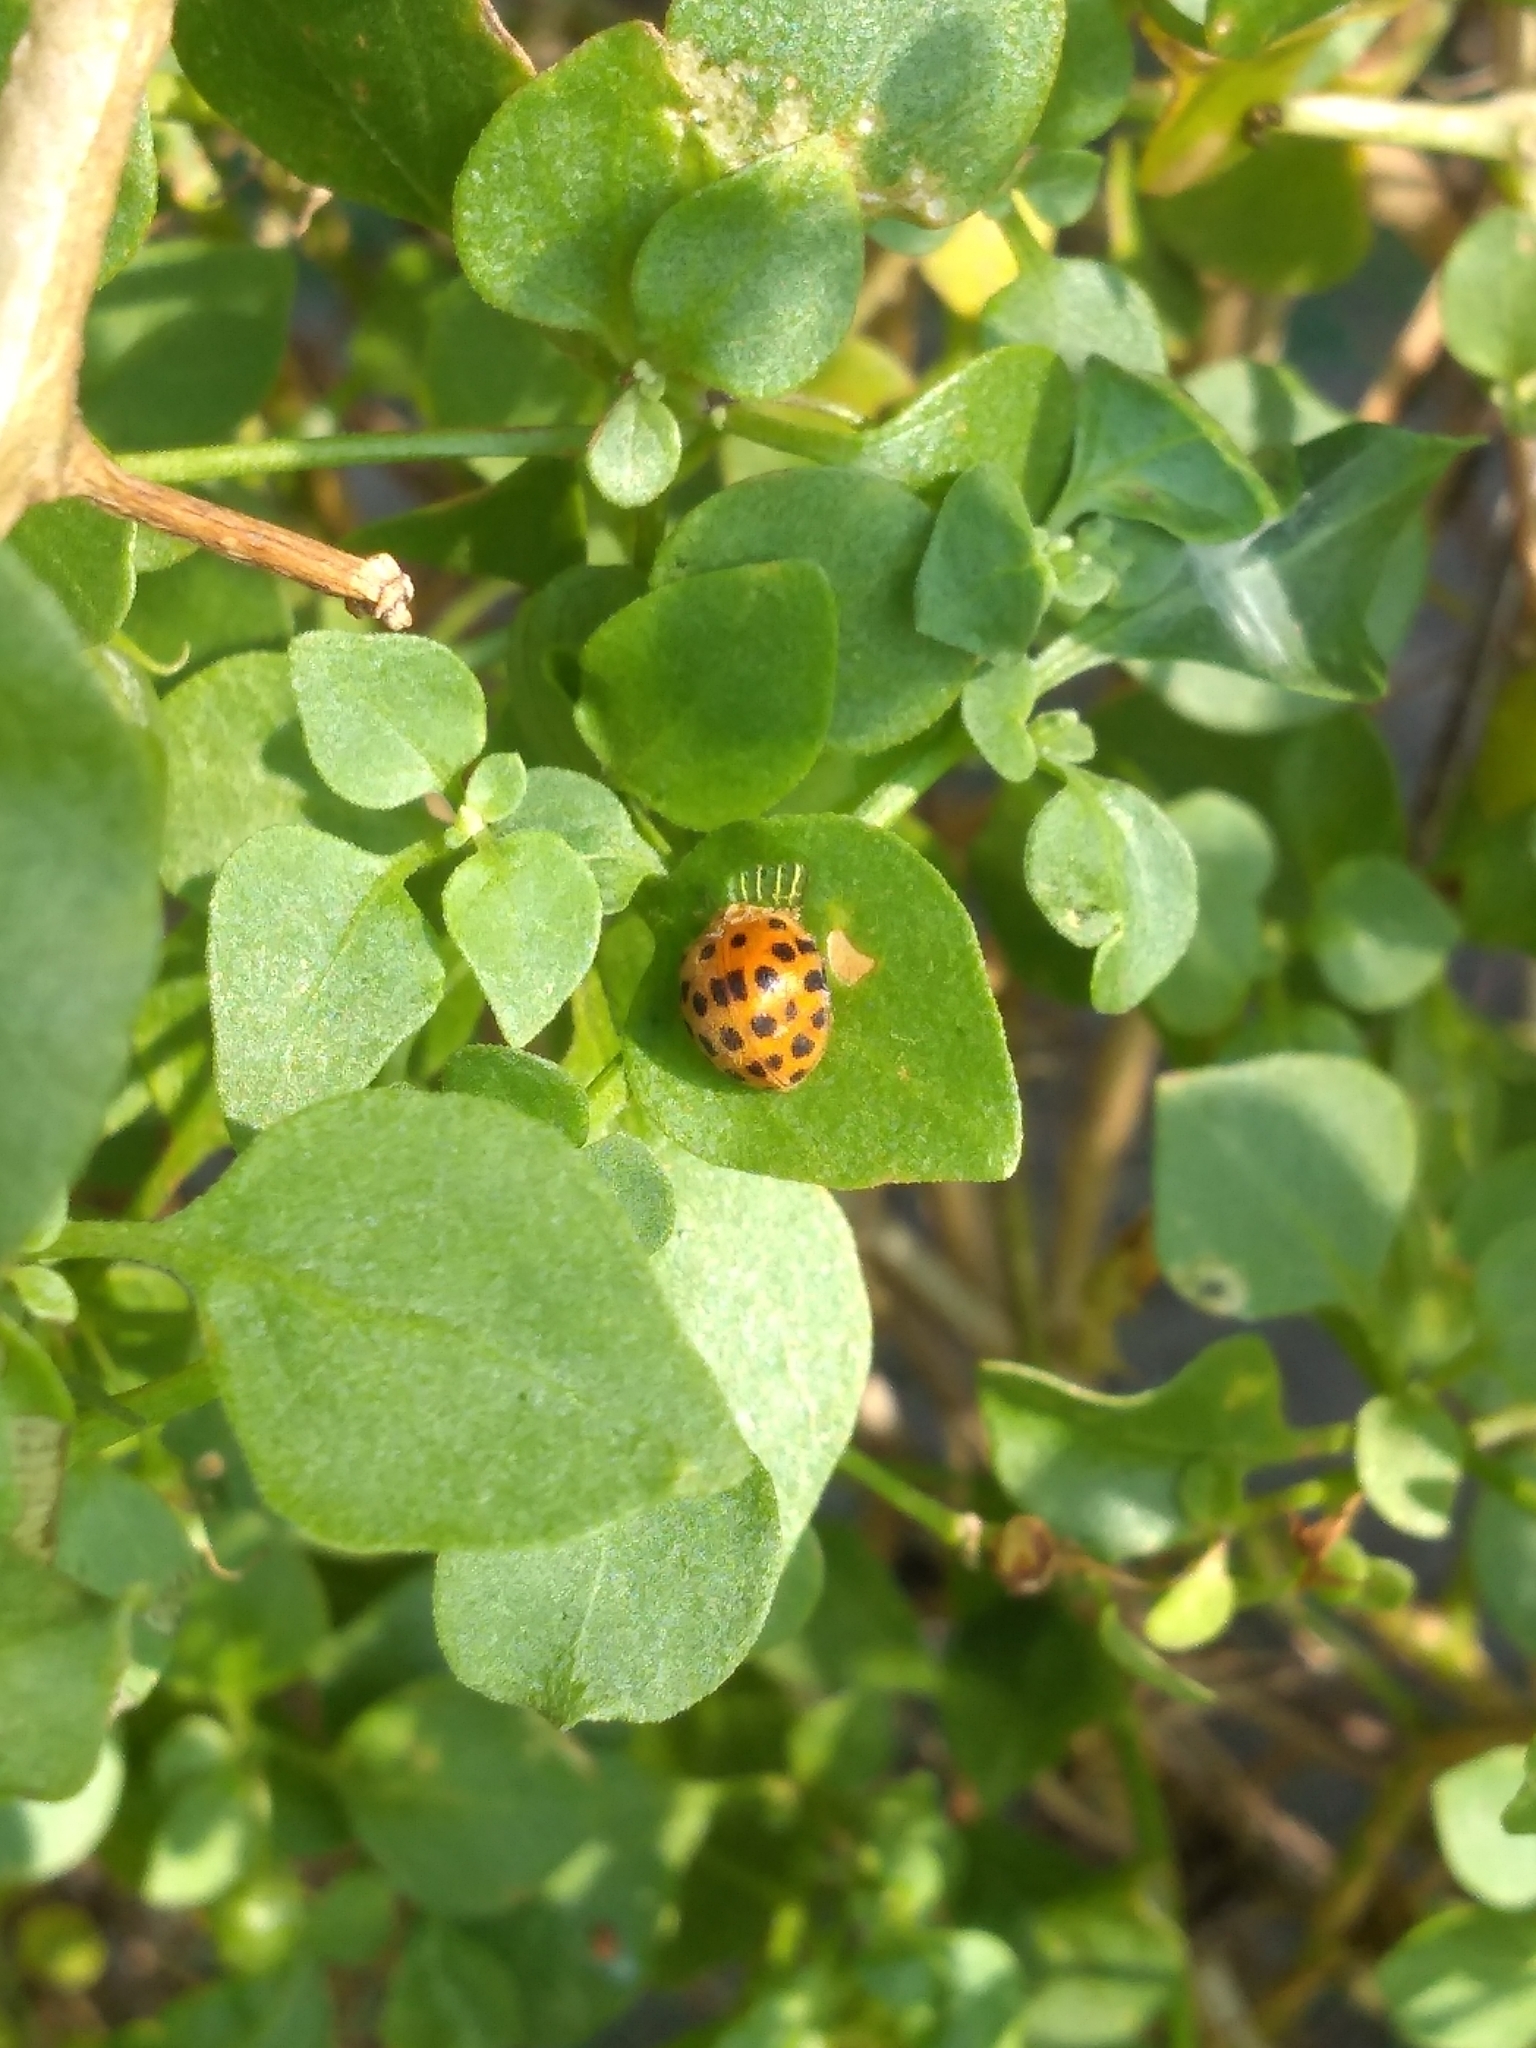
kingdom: Animalia
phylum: Arthropoda
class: Insecta
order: Coleoptera
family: Coccinellidae
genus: Henosepilachna
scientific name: Henosepilachna vigintioctopunctata
